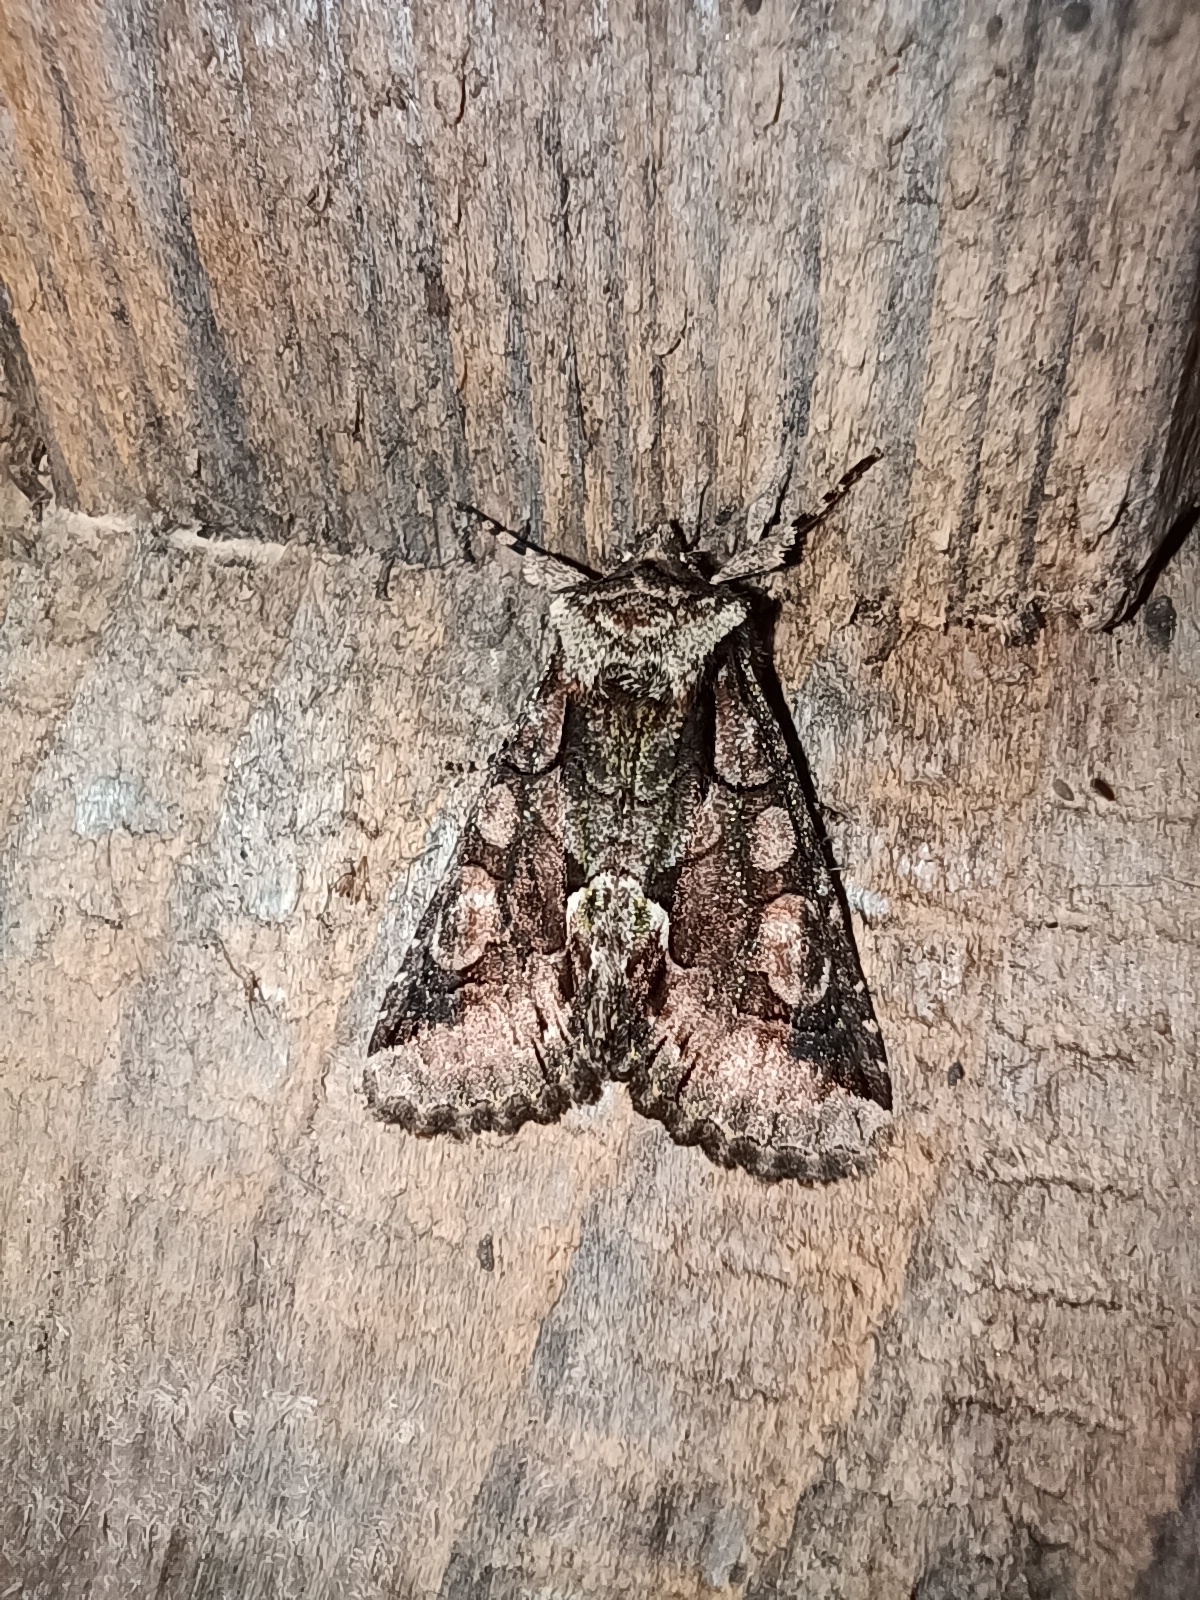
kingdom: Animalia
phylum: Arthropoda
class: Insecta
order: Lepidoptera
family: Noctuidae
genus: Allophyes
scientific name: Allophyes oxyacanthae
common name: Green-brindled crescent
